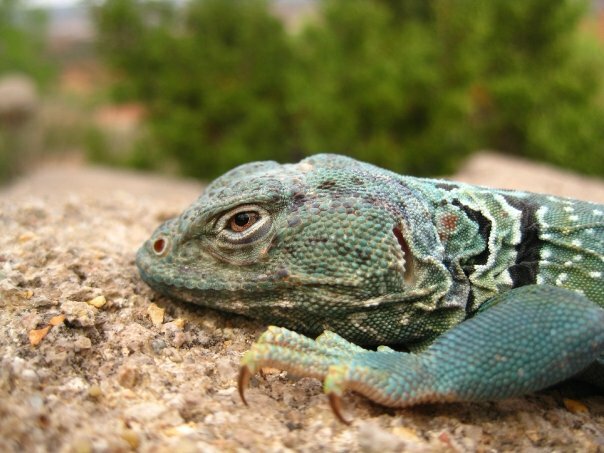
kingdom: Animalia
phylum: Chordata
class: Squamata
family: Crotaphytidae
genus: Crotaphytus
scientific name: Crotaphytus collaris
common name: Collared lizard
